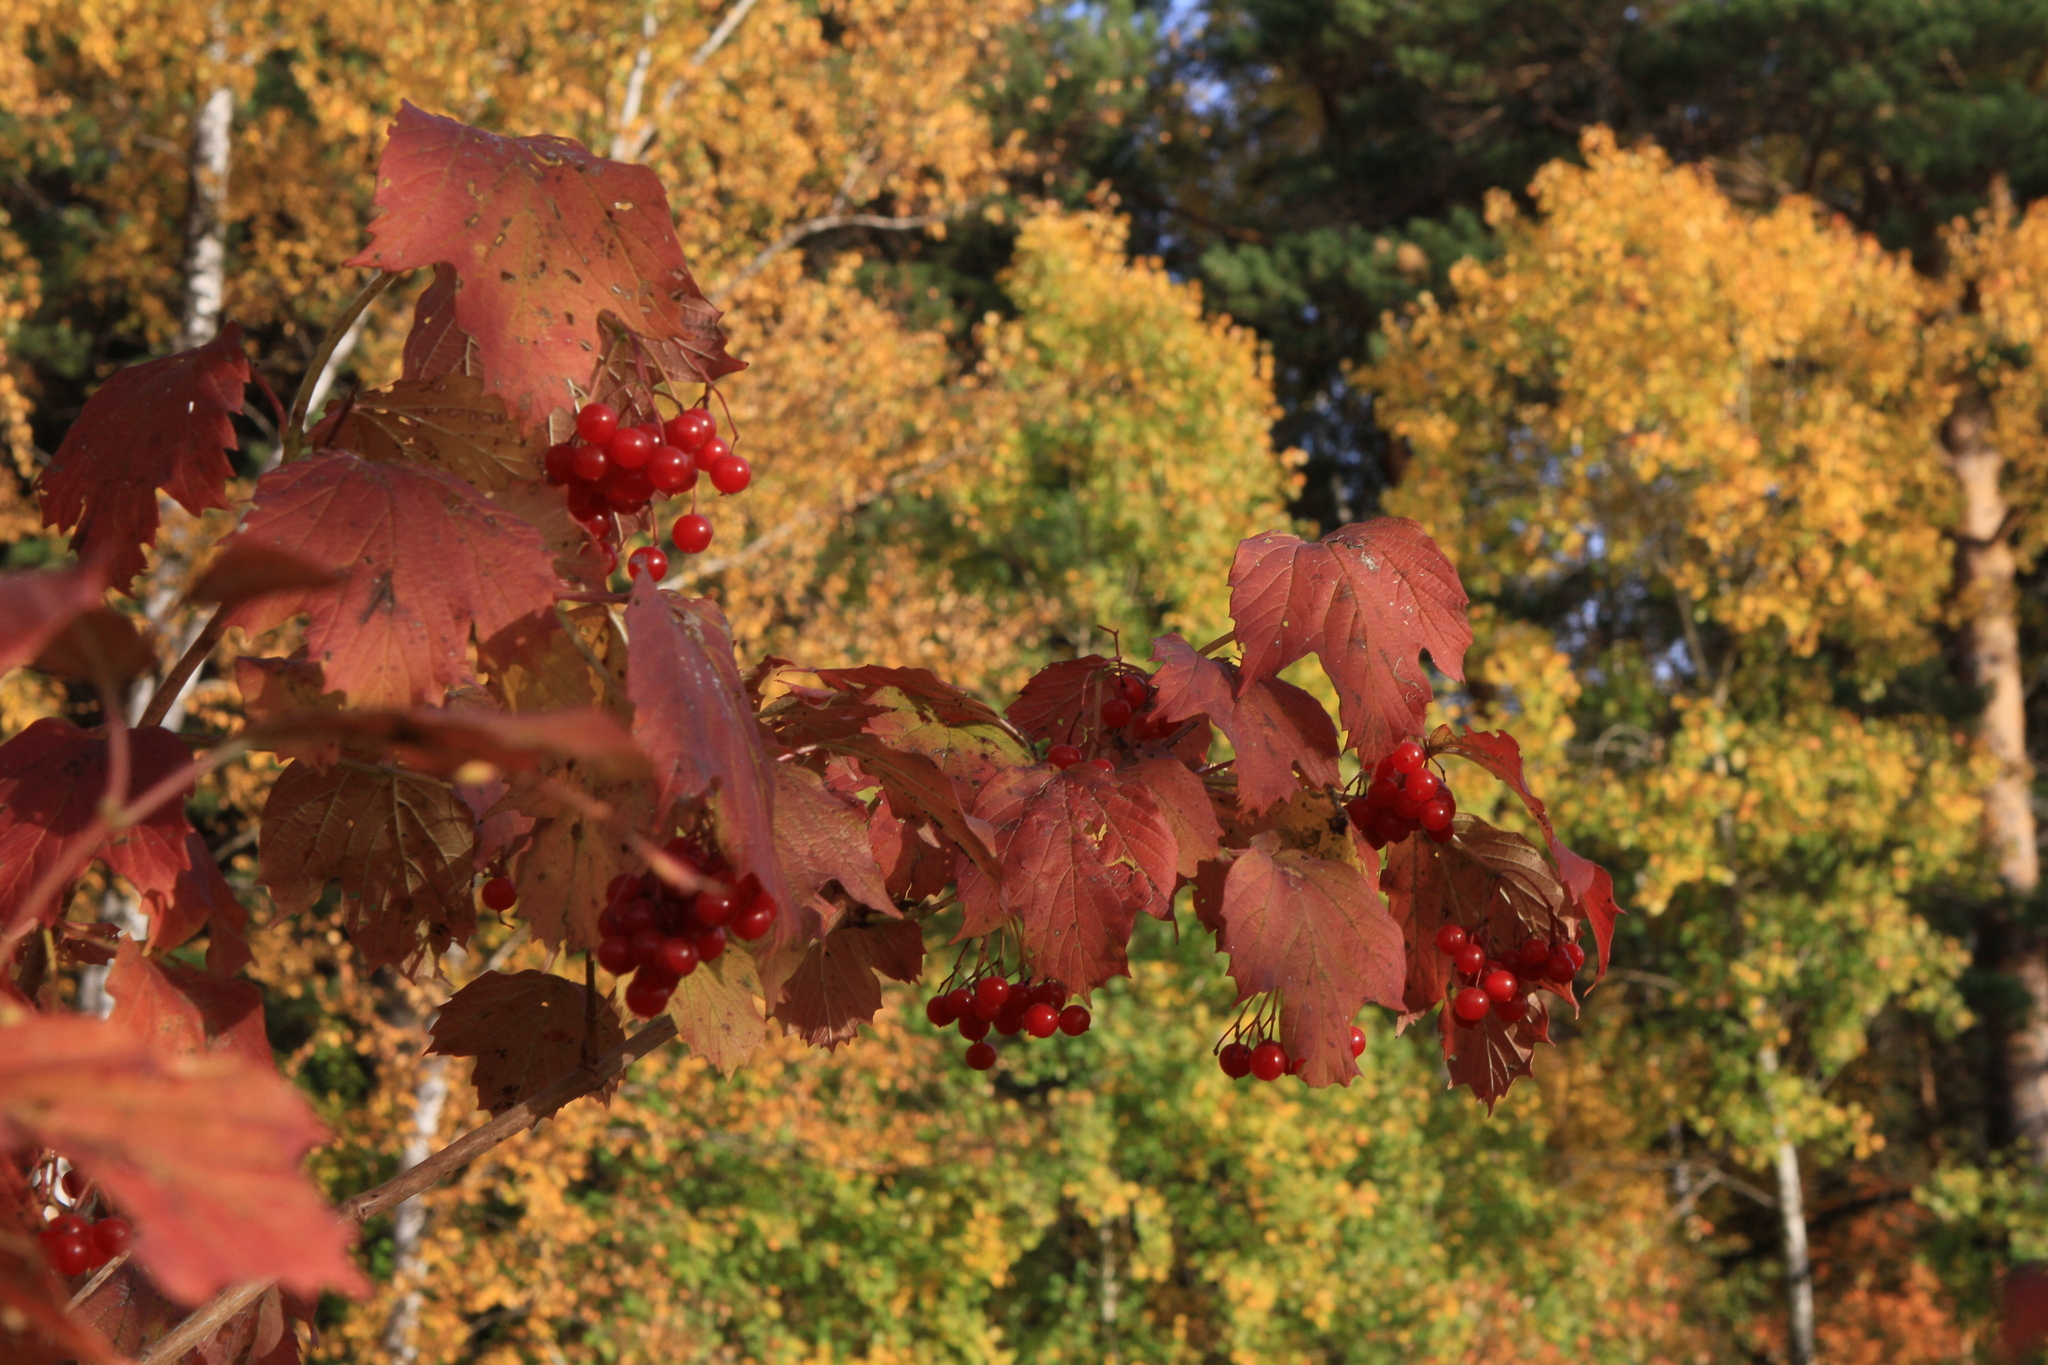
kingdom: Plantae
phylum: Tracheophyta
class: Magnoliopsida
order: Dipsacales
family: Viburnaceae
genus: Viburnum
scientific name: Viburnum opulus
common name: Guelder-rose
